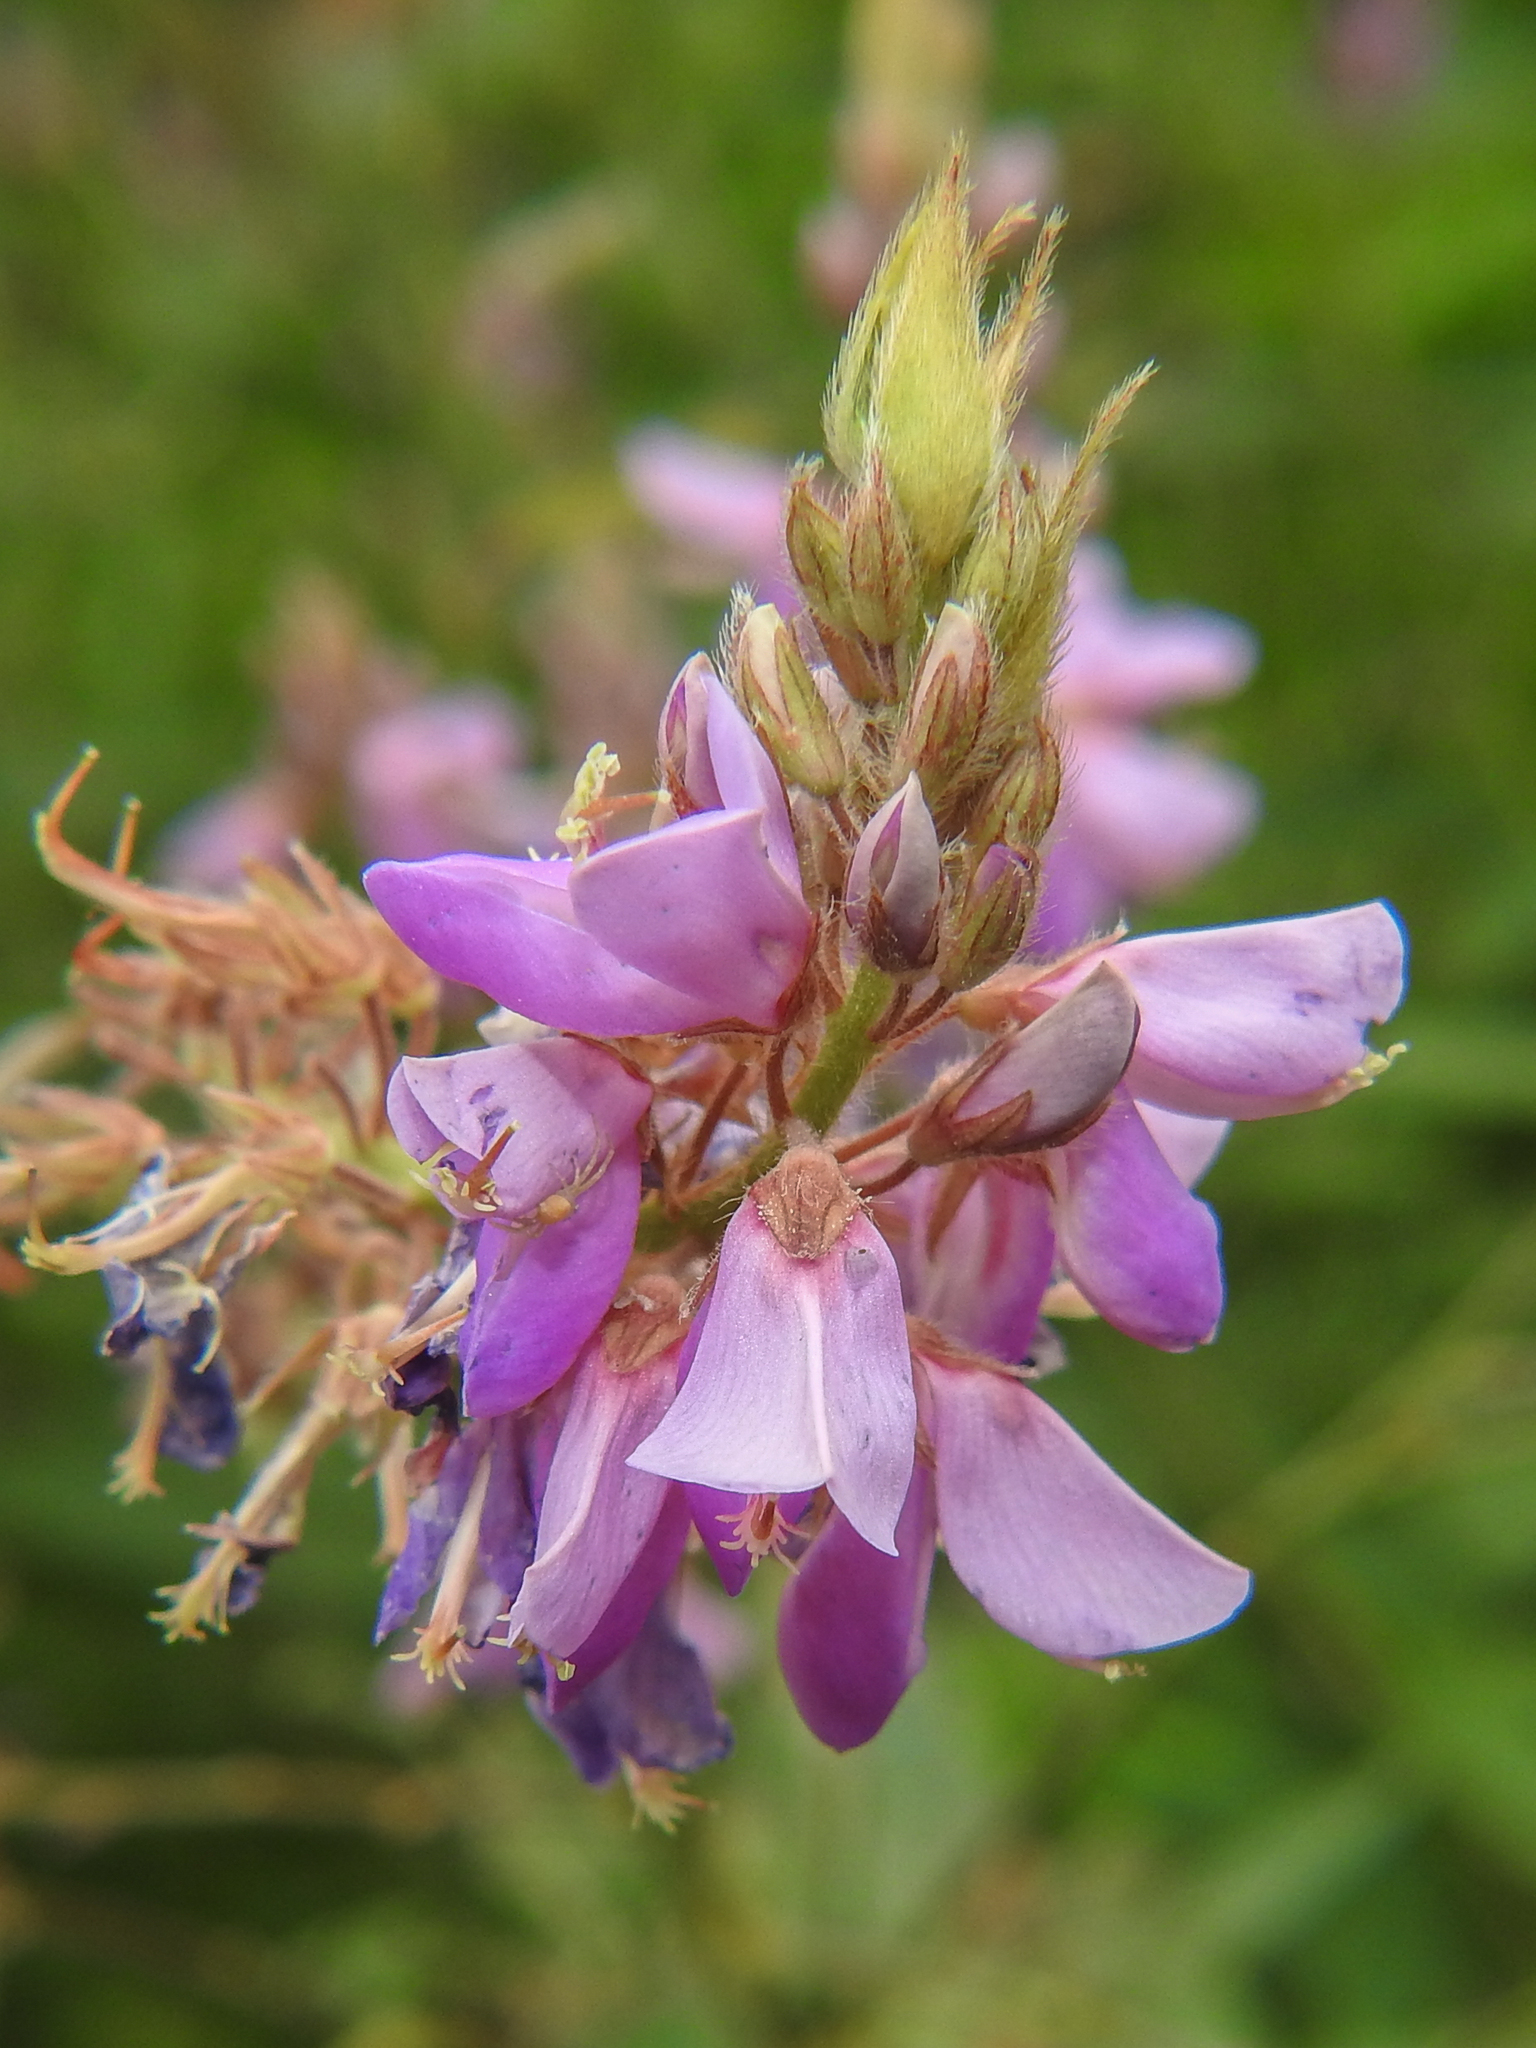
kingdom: Plantae
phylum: Tracheophyta
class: Magnoliopsida
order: Fabales
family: Fabaceae
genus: Desmodium
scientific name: Desmodium canadense
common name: Canada tick-trefoil
